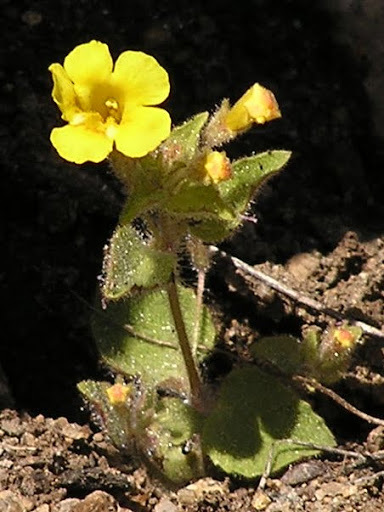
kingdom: Plantae
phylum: Tracheophyta
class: Magnoliopsida
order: Lamiales
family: Phrymaceae
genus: Erythranthe
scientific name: Erythranthe arenaria
